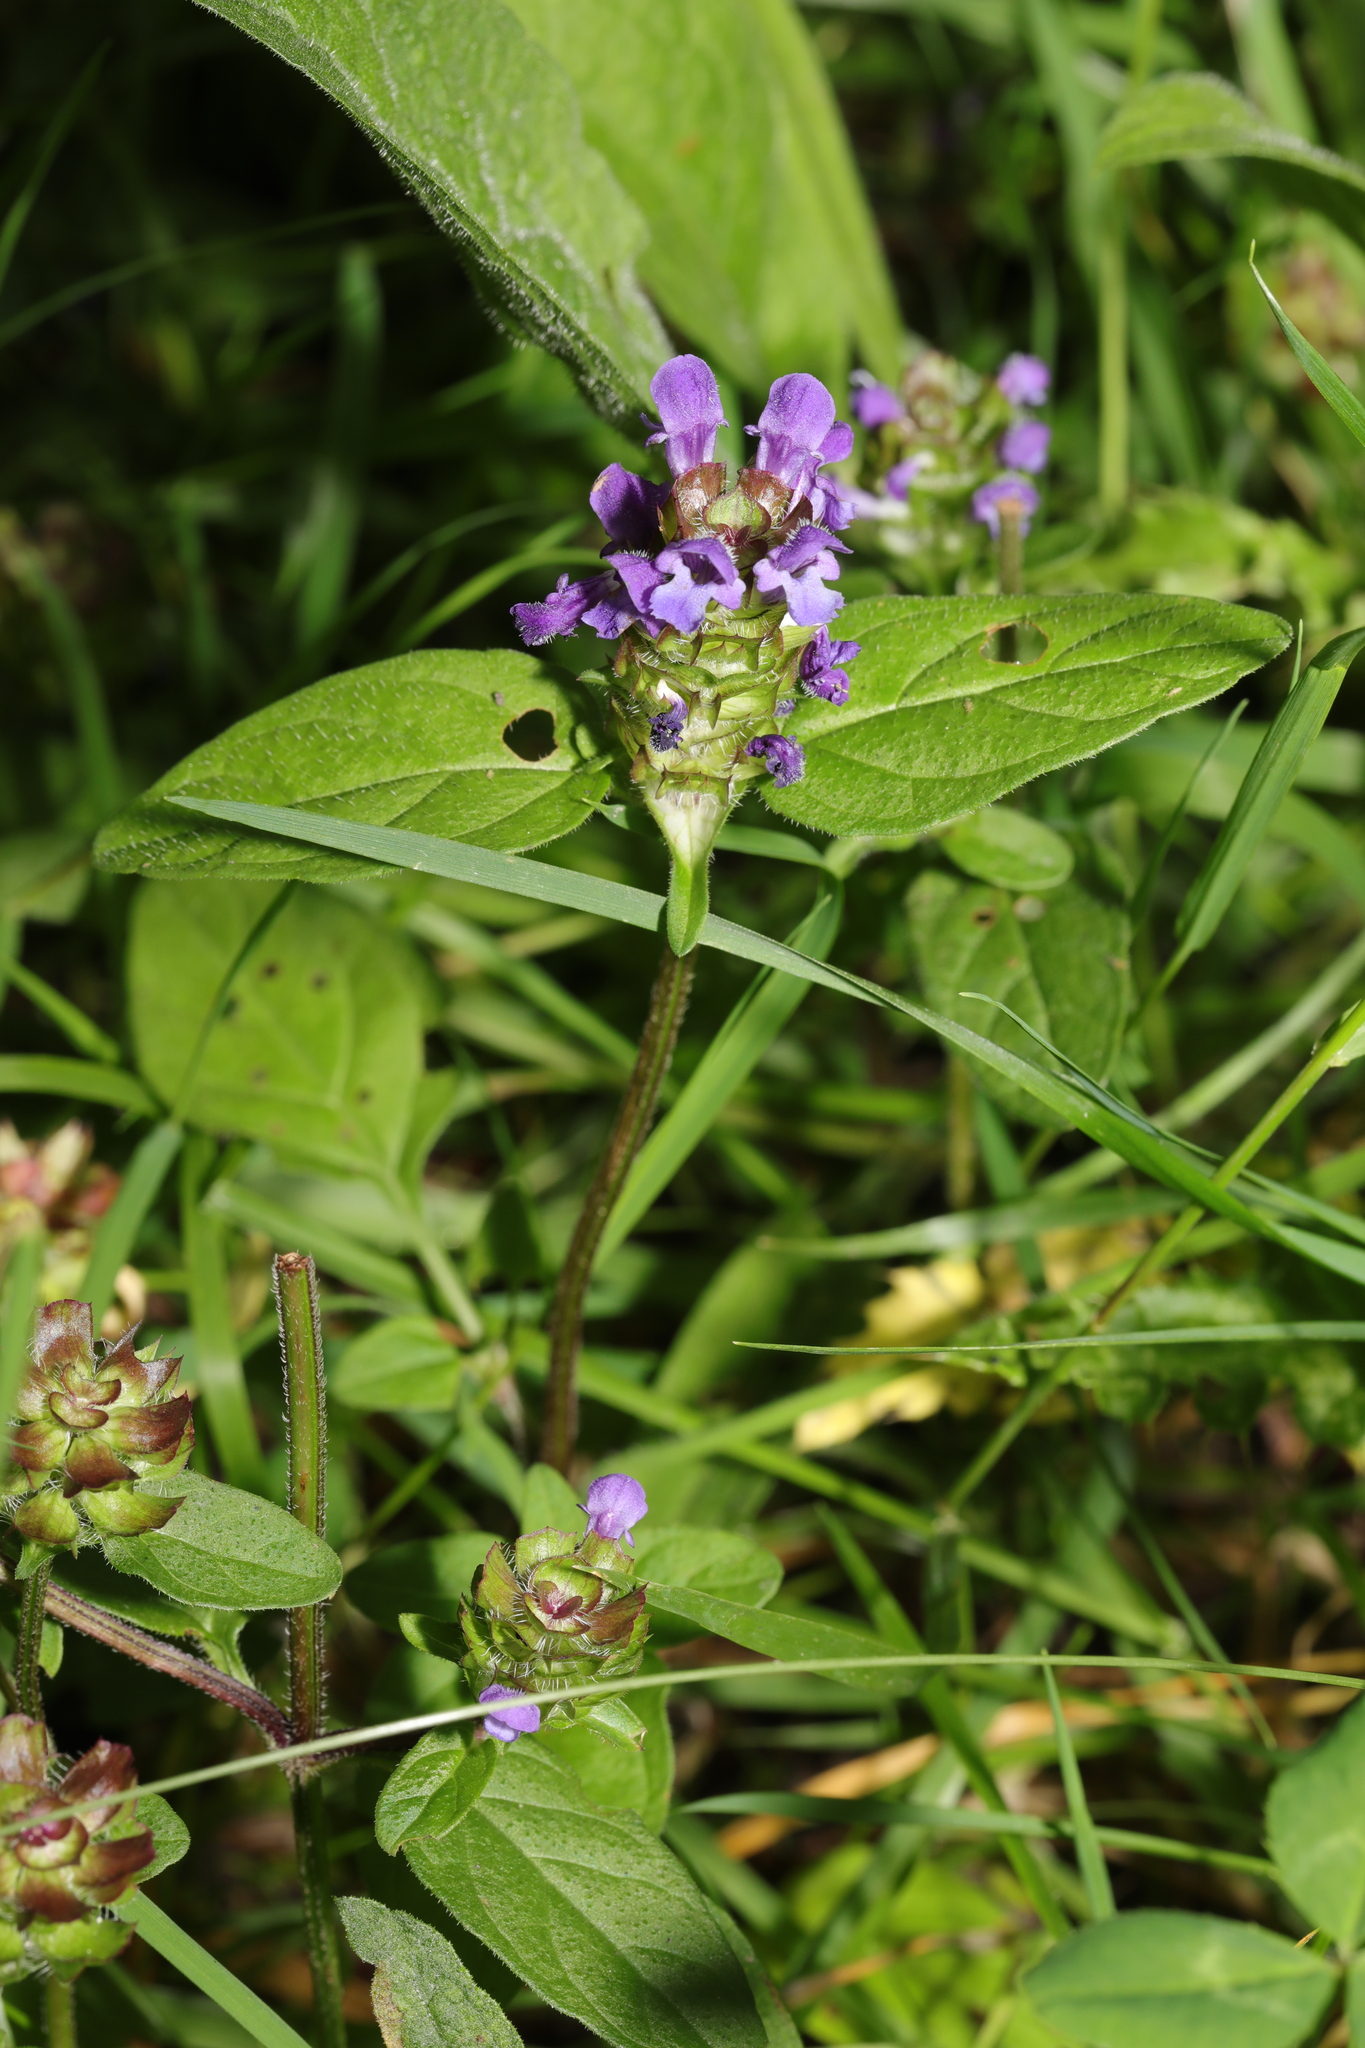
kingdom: Plantae
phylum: Tracheophyta
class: Magnoliopsida
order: Lamiales
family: Lamiaceae
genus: Prunella
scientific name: Prunella vulgaris
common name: Heal-all
